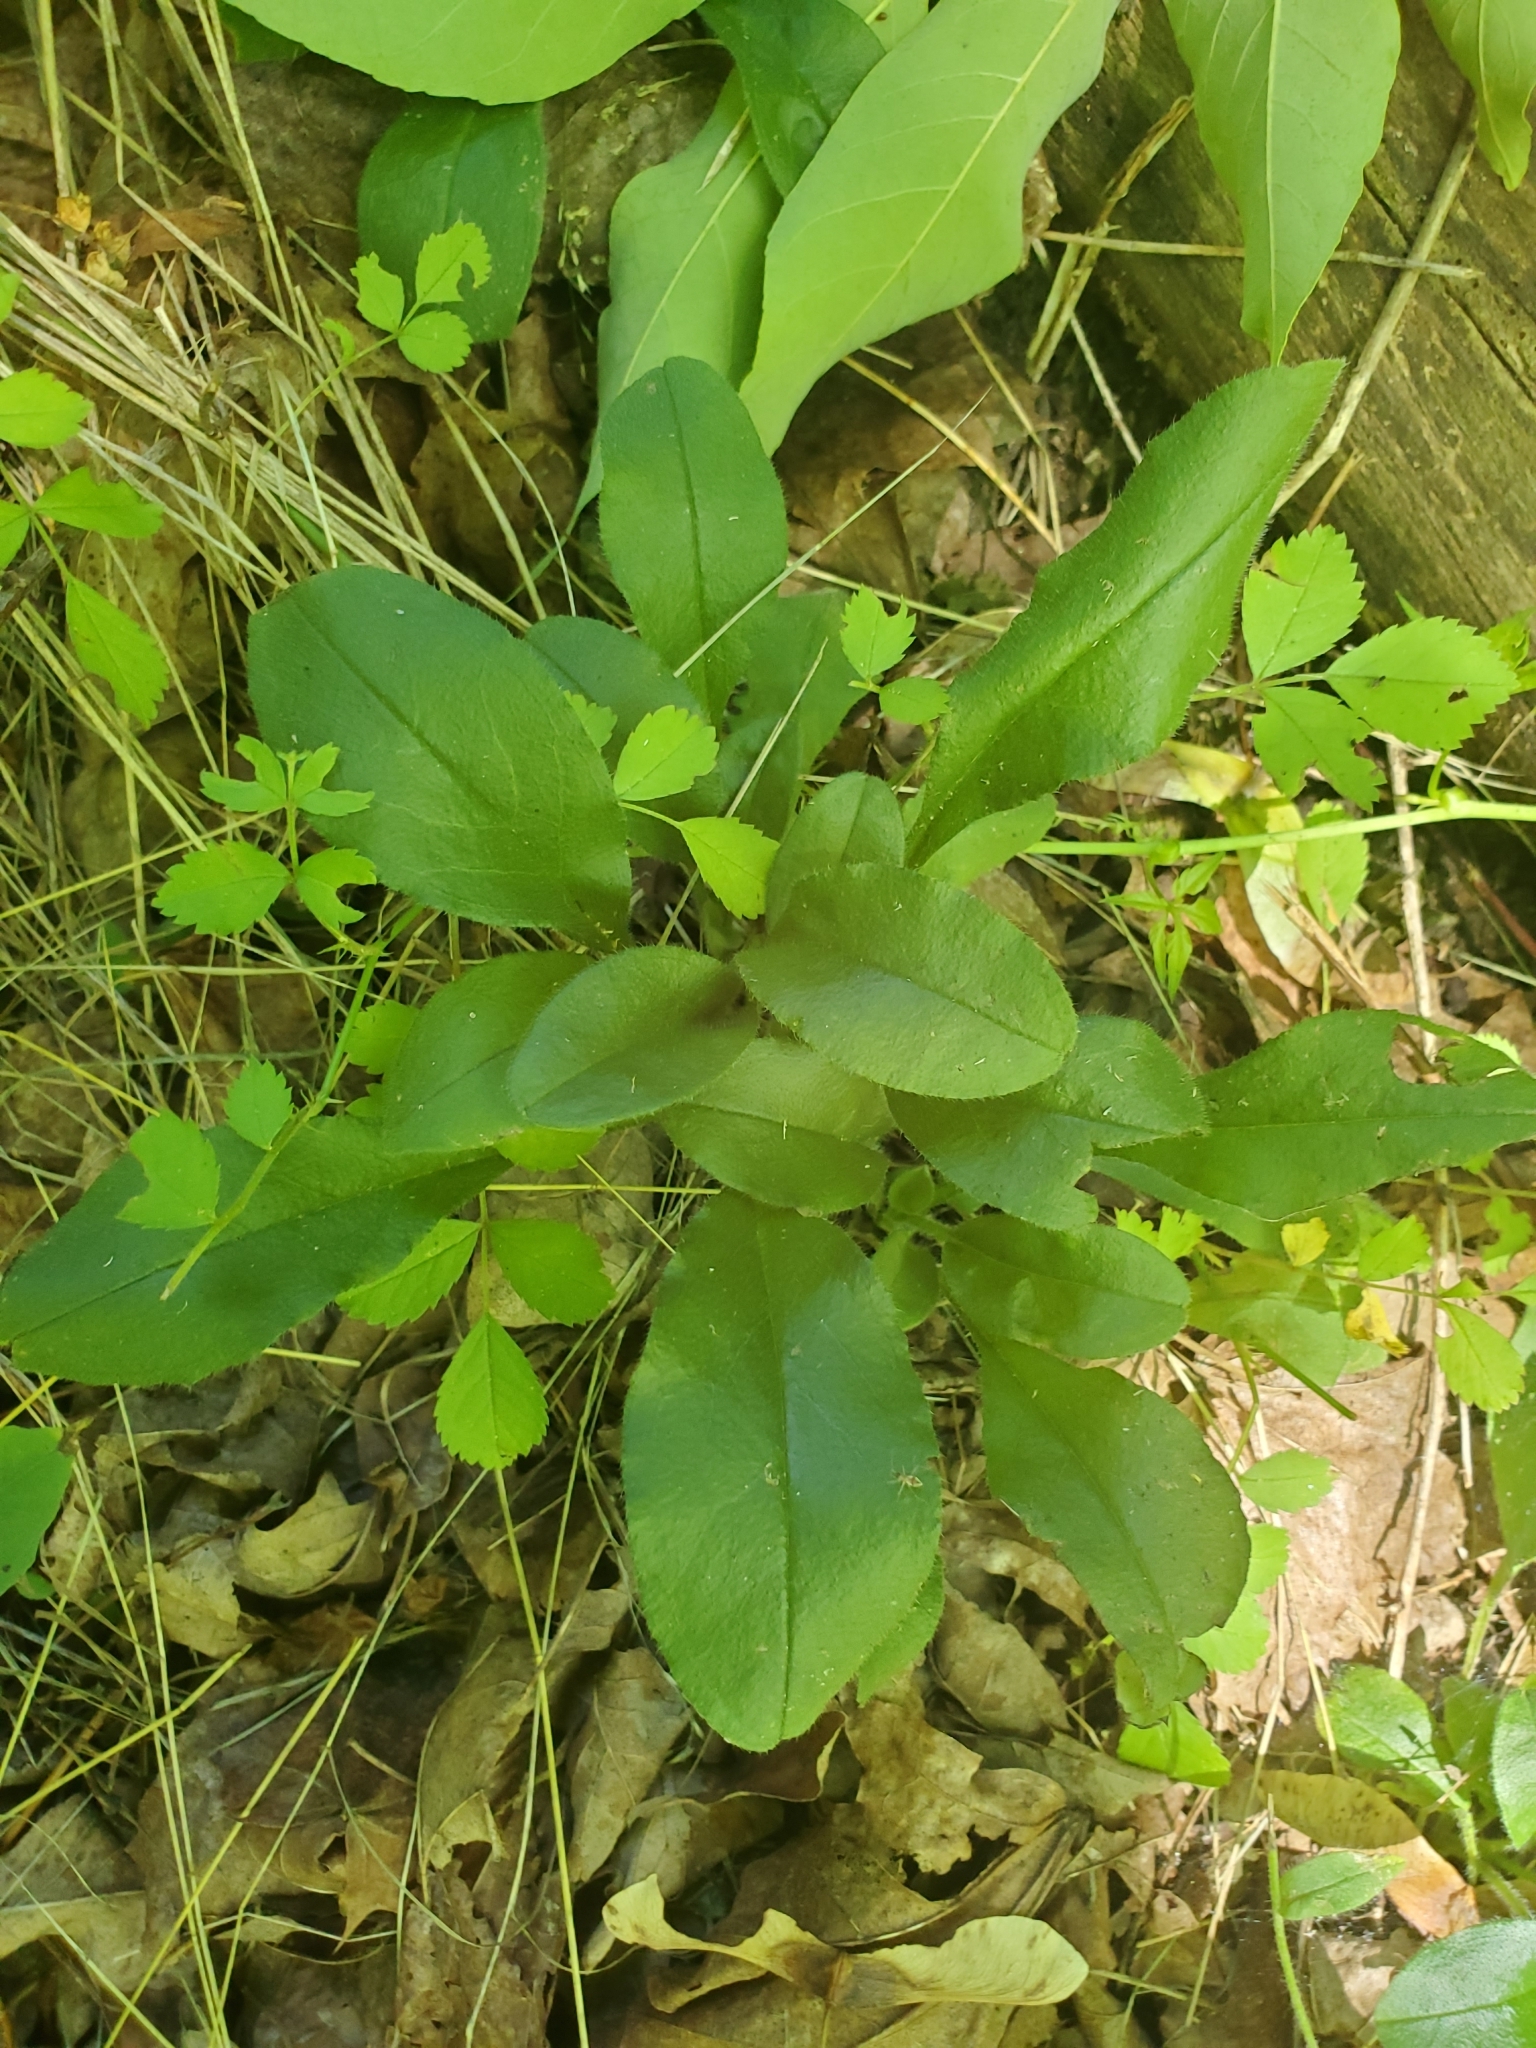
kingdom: Plantae
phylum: Tracheophyta
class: Magnoliopsida
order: Ericales
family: Ericaceae
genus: Epigaea
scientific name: Epigaea repens
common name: Gravelroot
